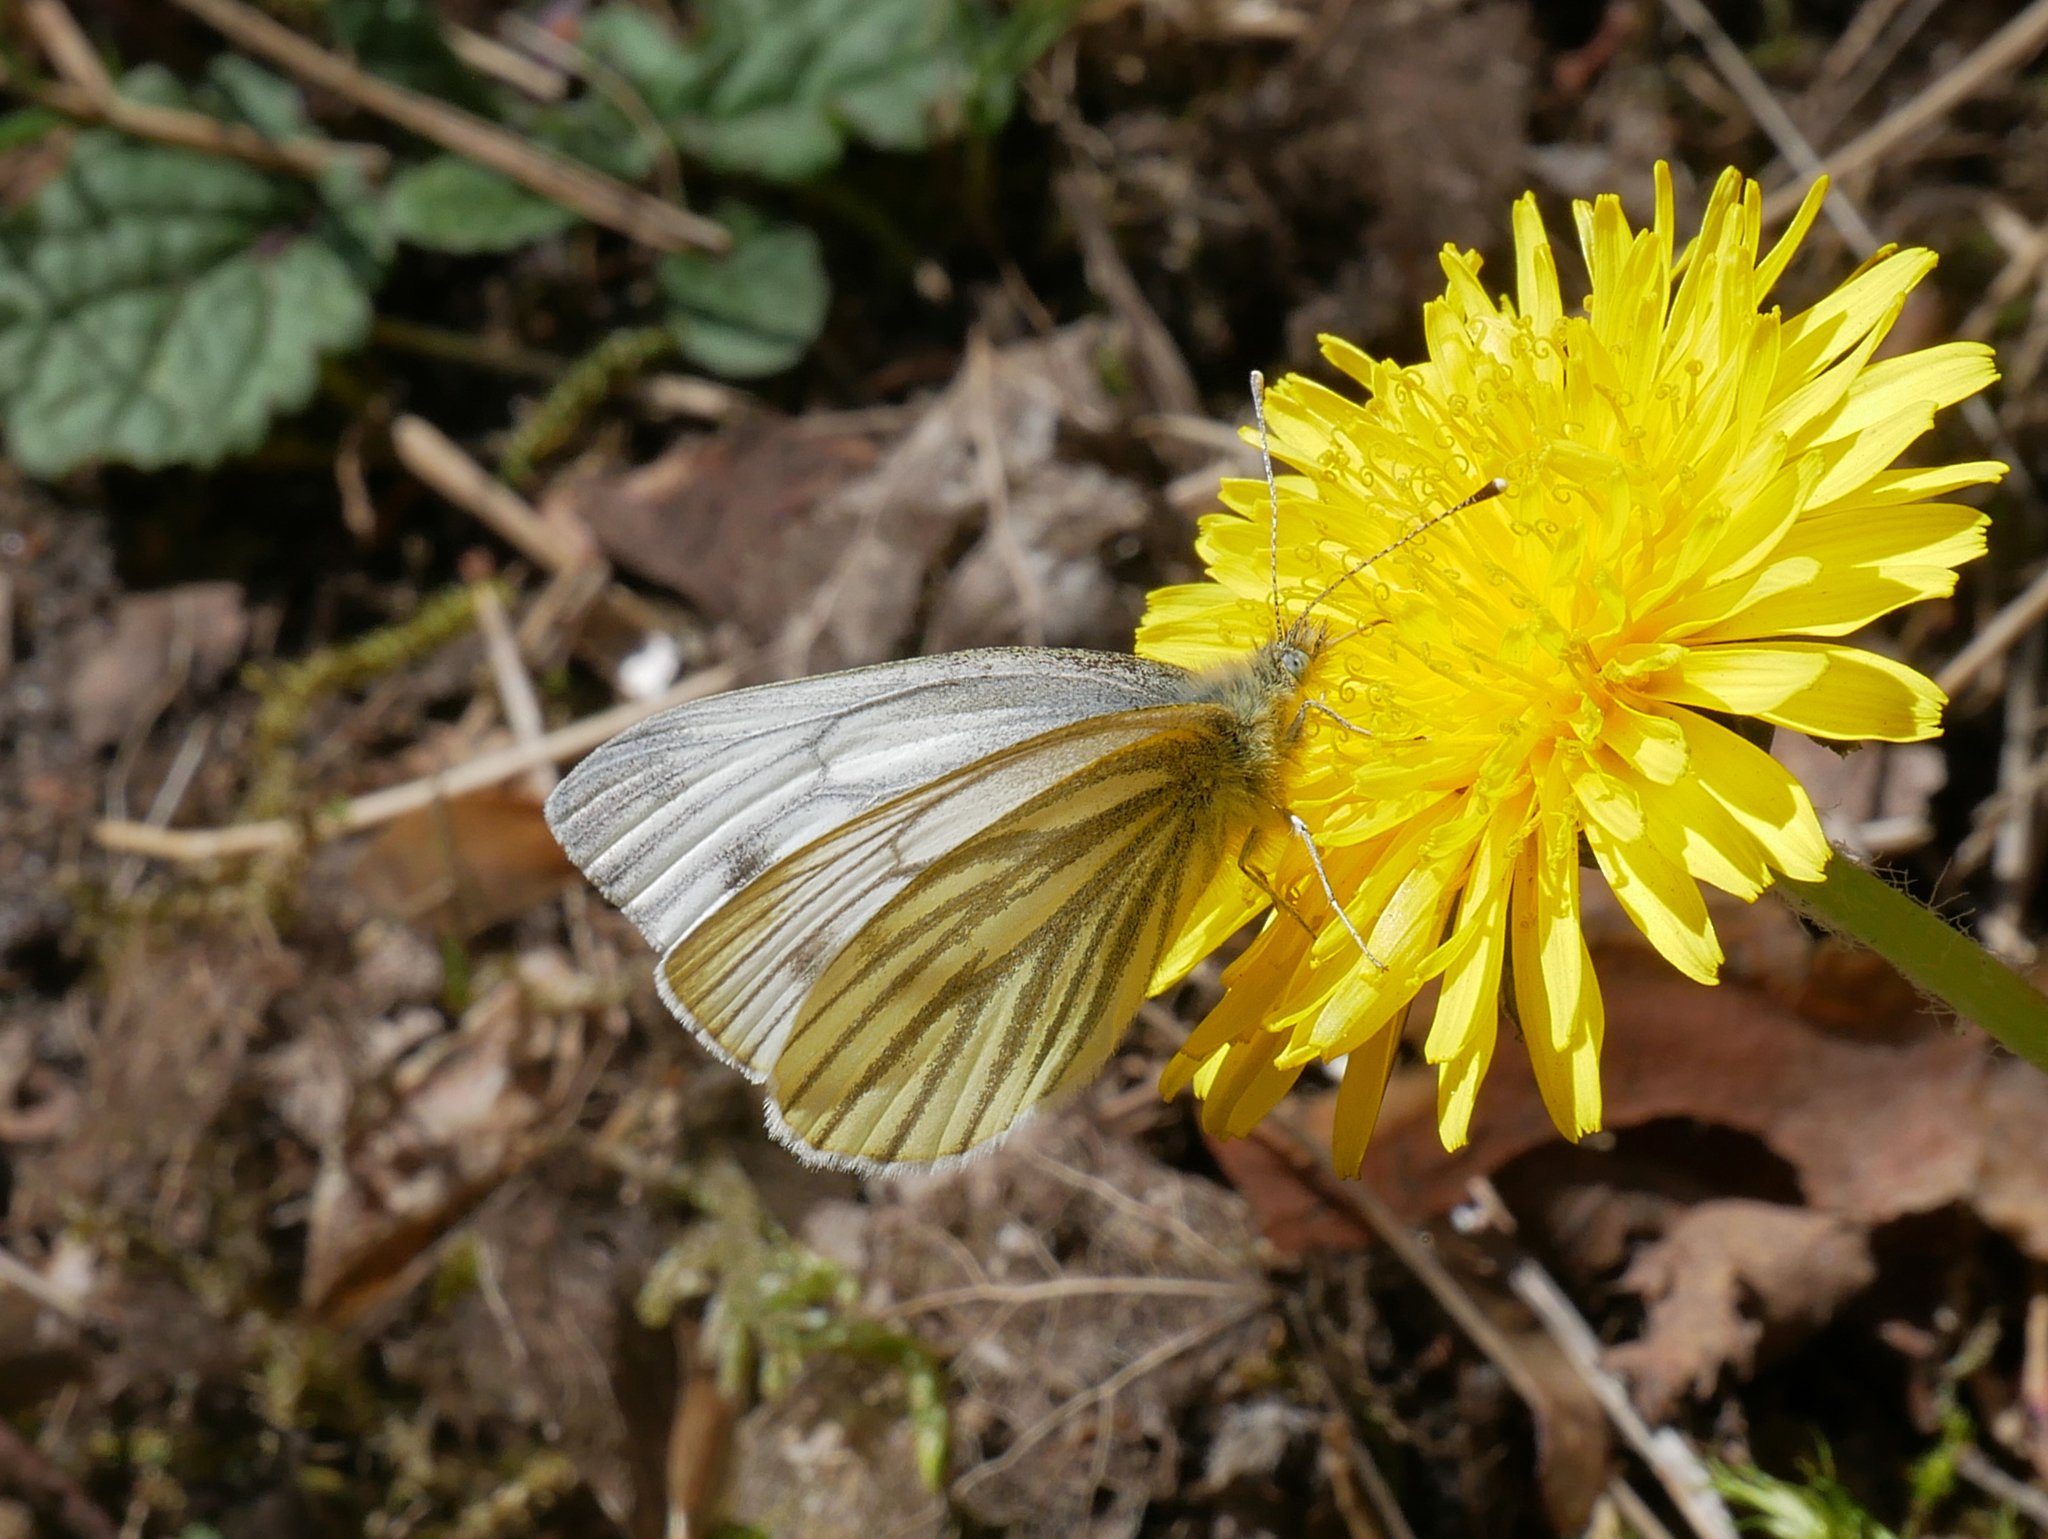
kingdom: Animalia
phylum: Arthropoda
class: Insecta
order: Lepidoptera
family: Pieridae
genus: Pieris
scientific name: Pieris napi
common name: Green-veined white
